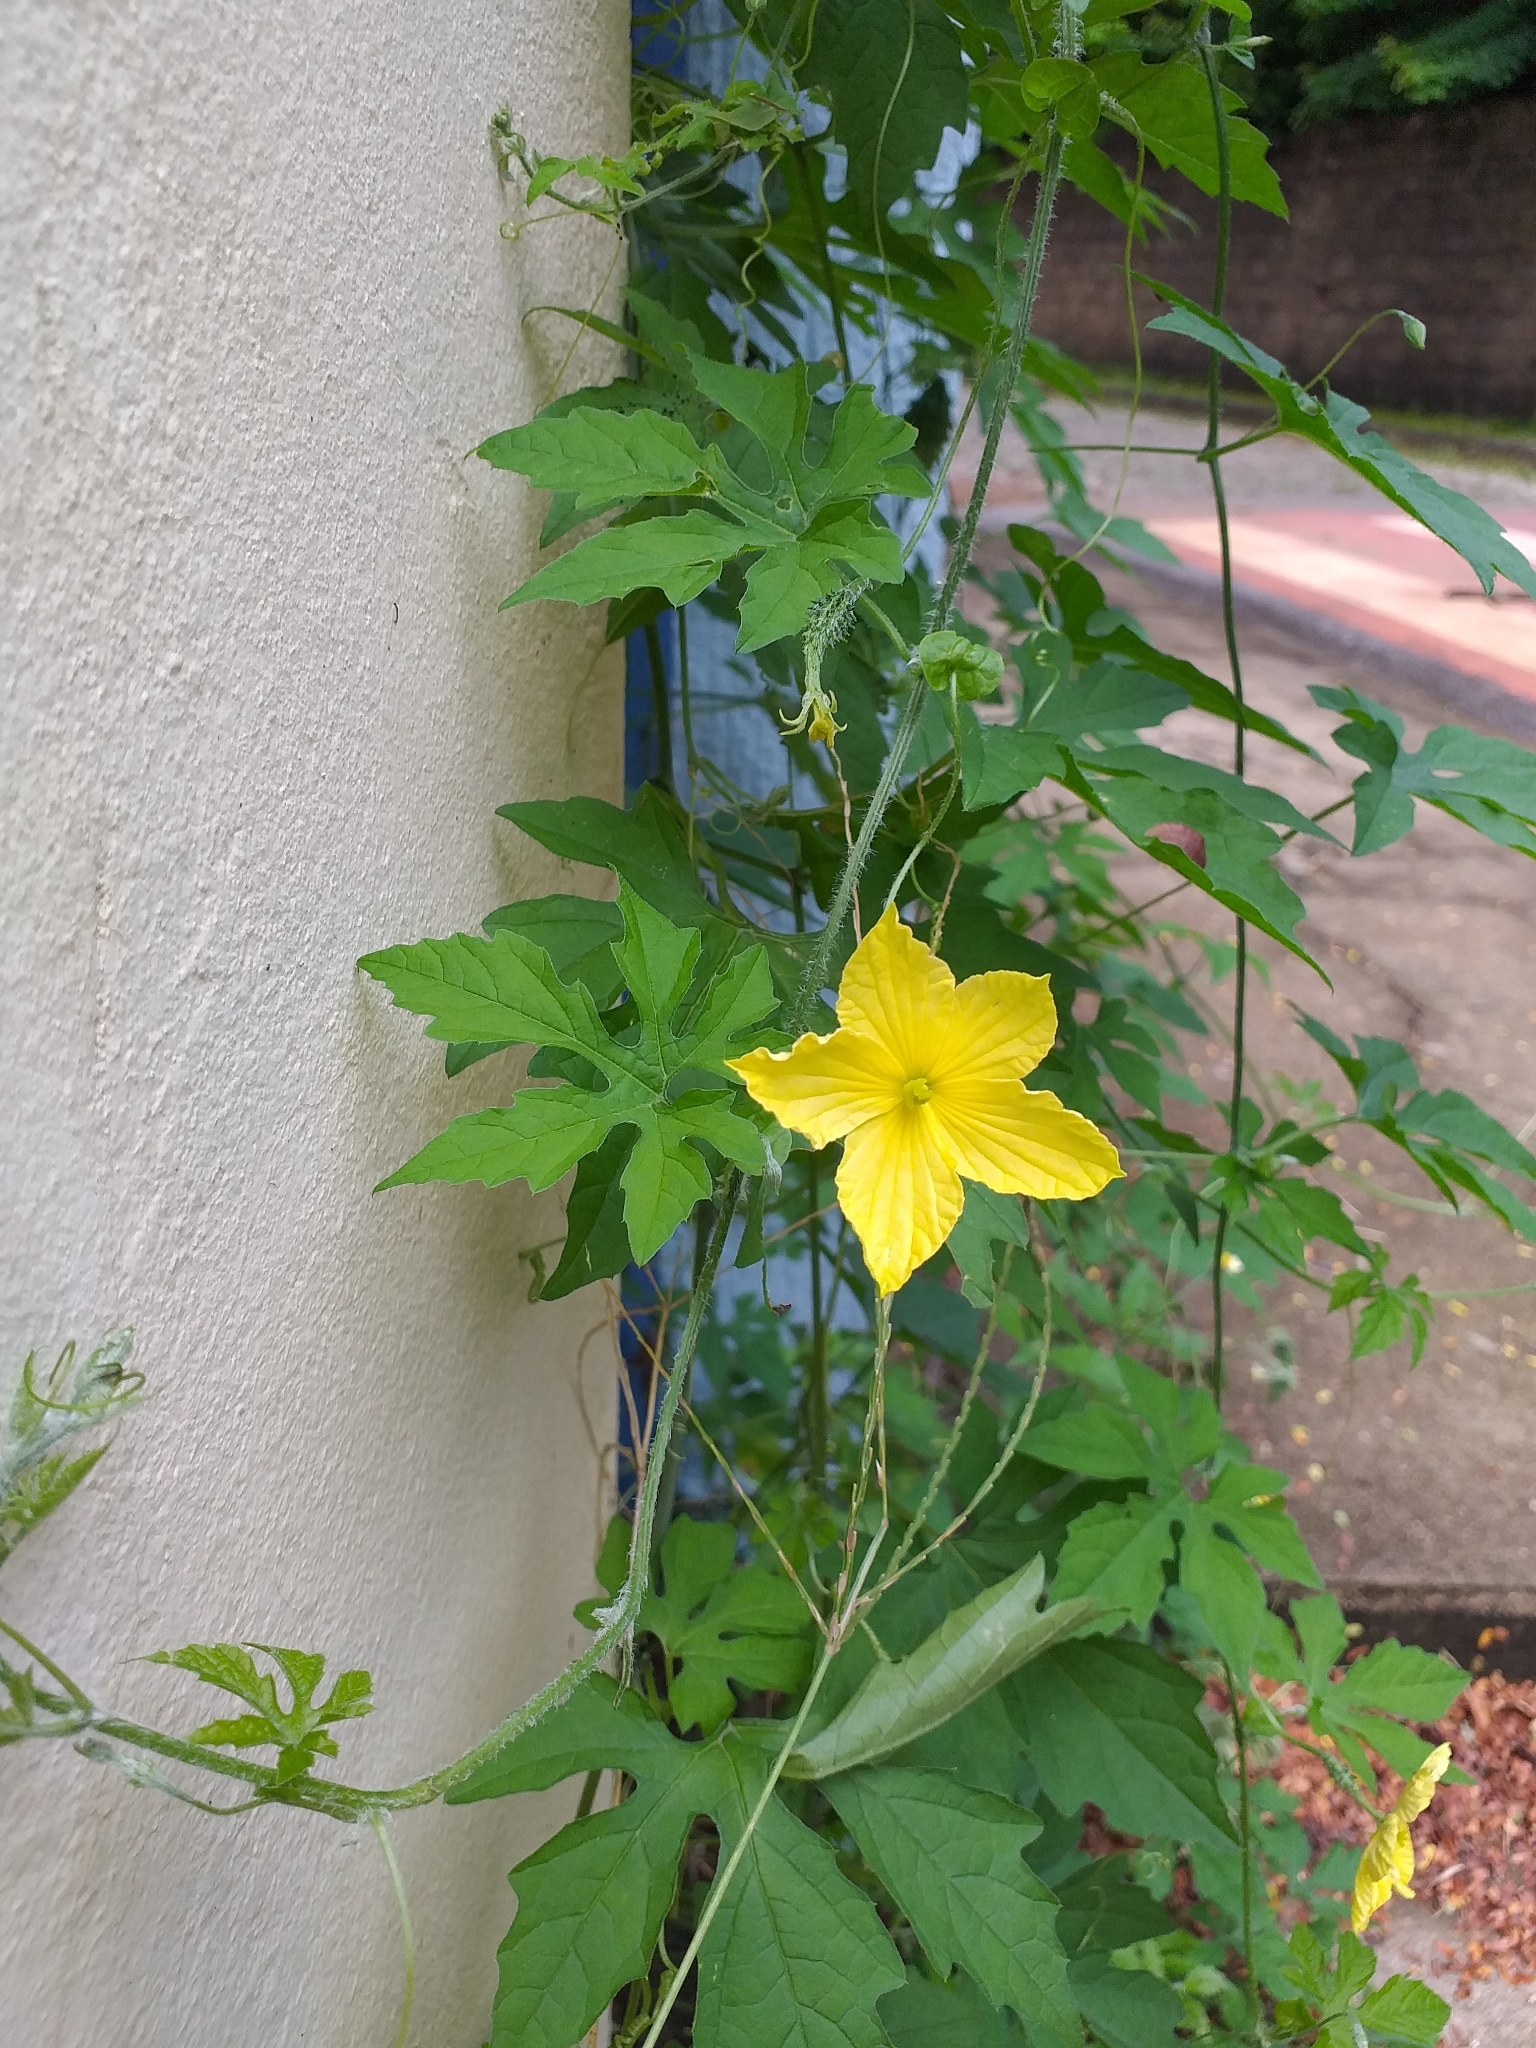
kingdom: Plantae
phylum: Tracheophyta
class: Magnoliopsida
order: Cucurbitales
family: Cucurbitaceae
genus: Momordica
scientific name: Momordica charantia
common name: Balsampear
